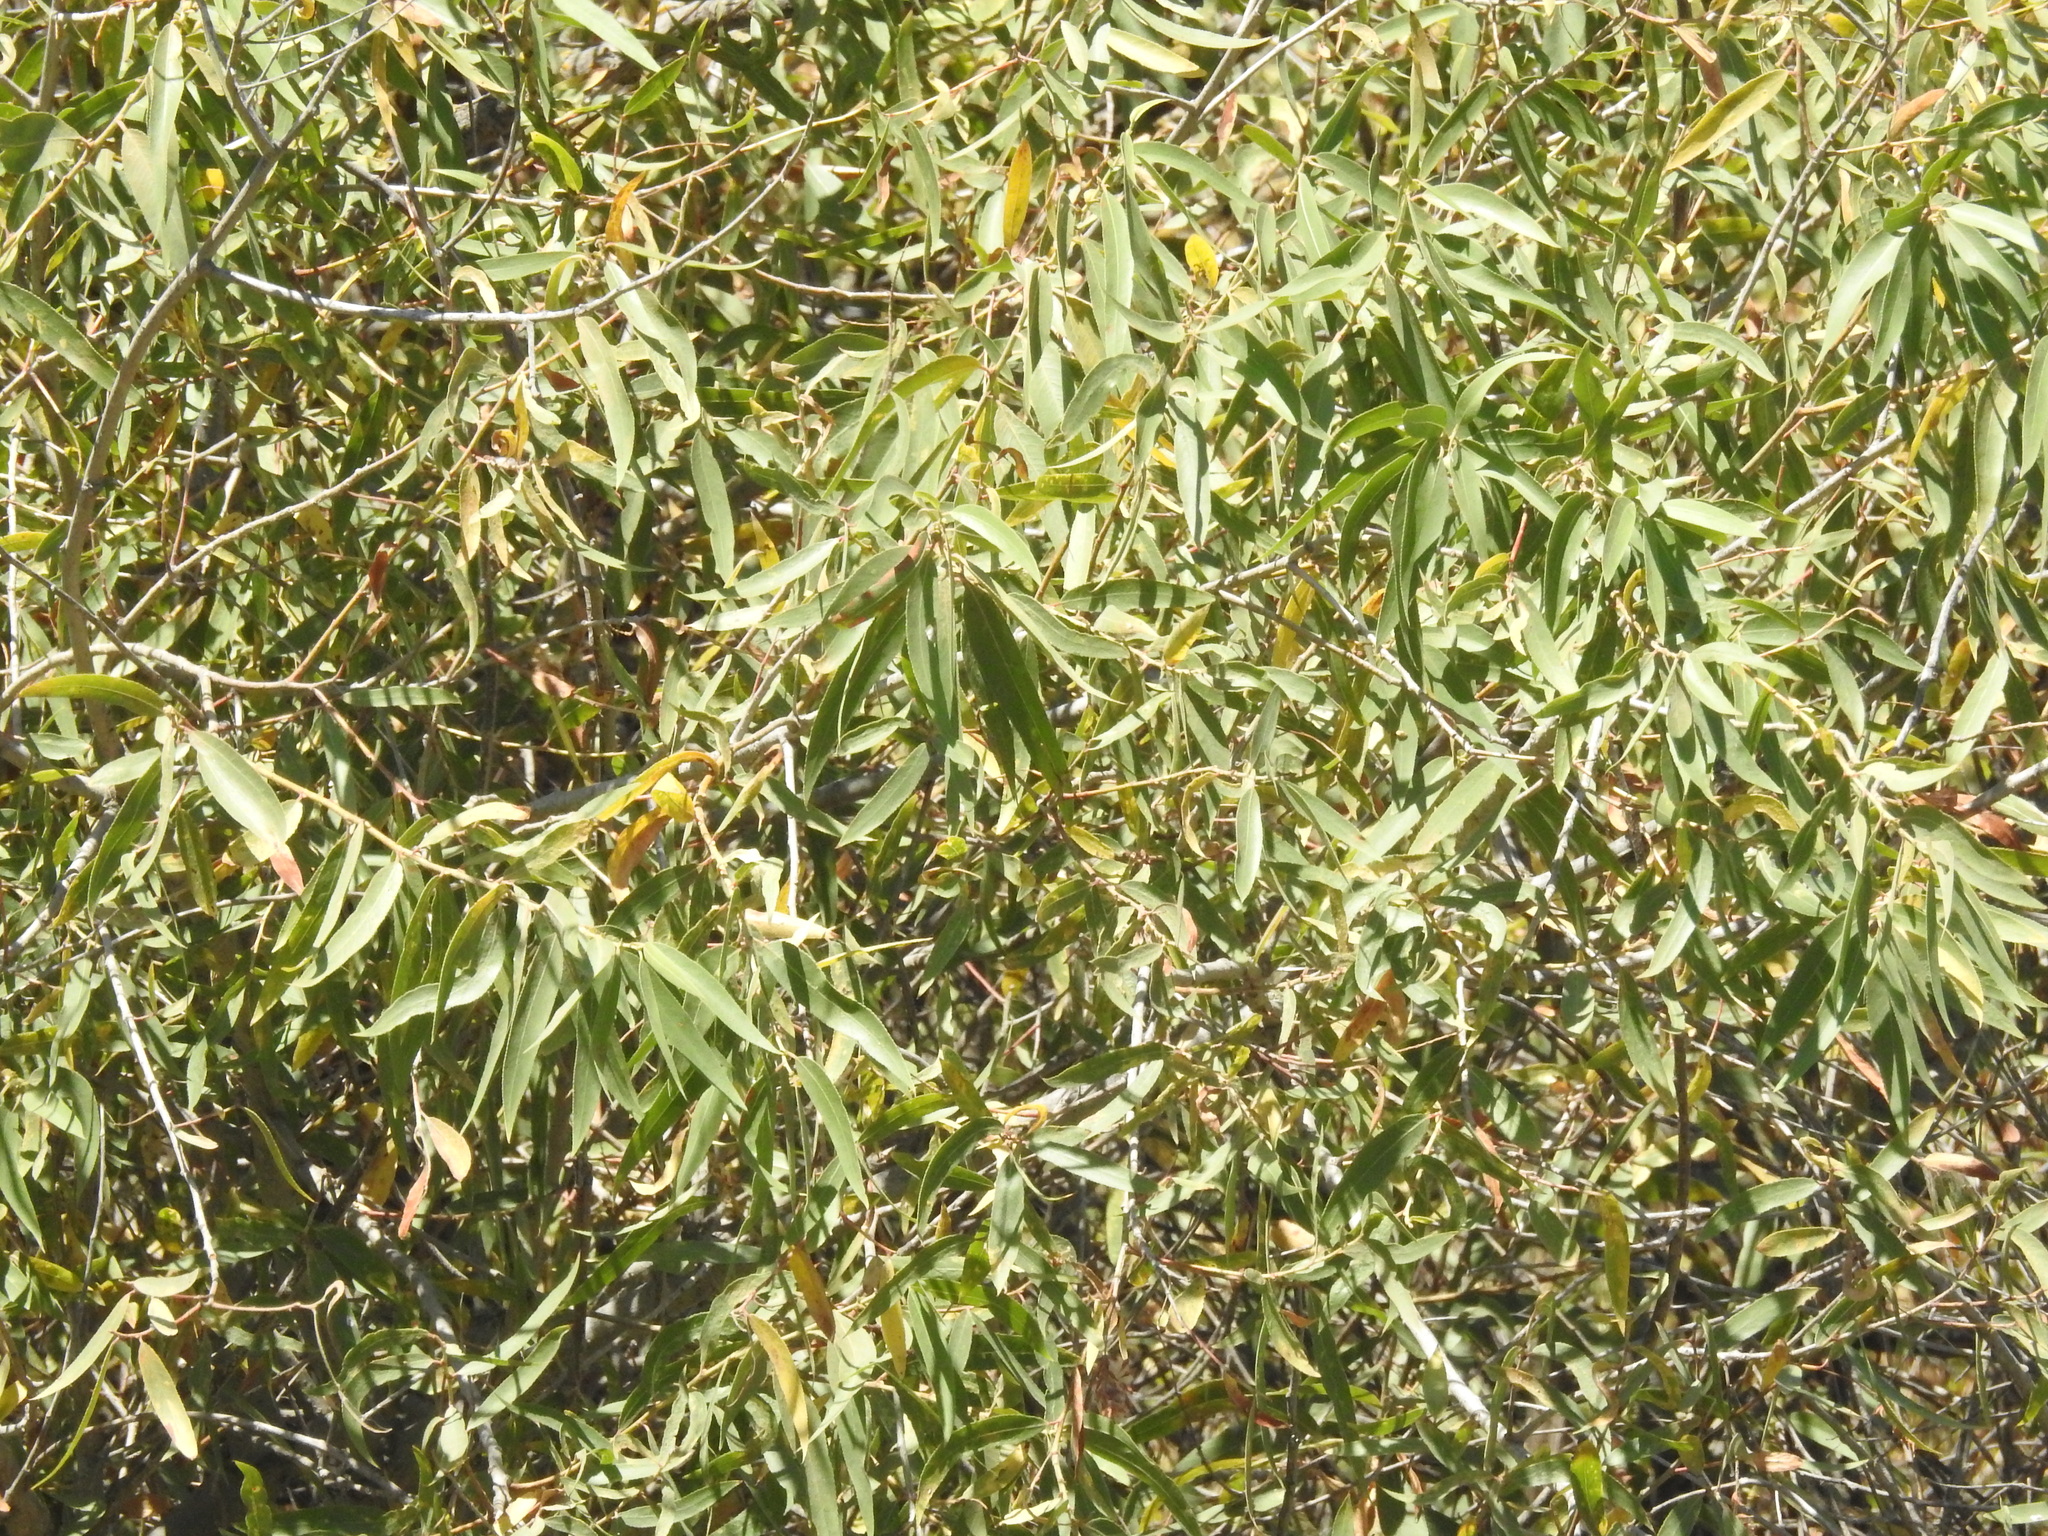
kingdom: Plantae
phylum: Tracheophyta
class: Magnoliopsida
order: Malpighiales
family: Salicaceae
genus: Salix
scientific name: Salix gooddingii
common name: Goodding's willow
